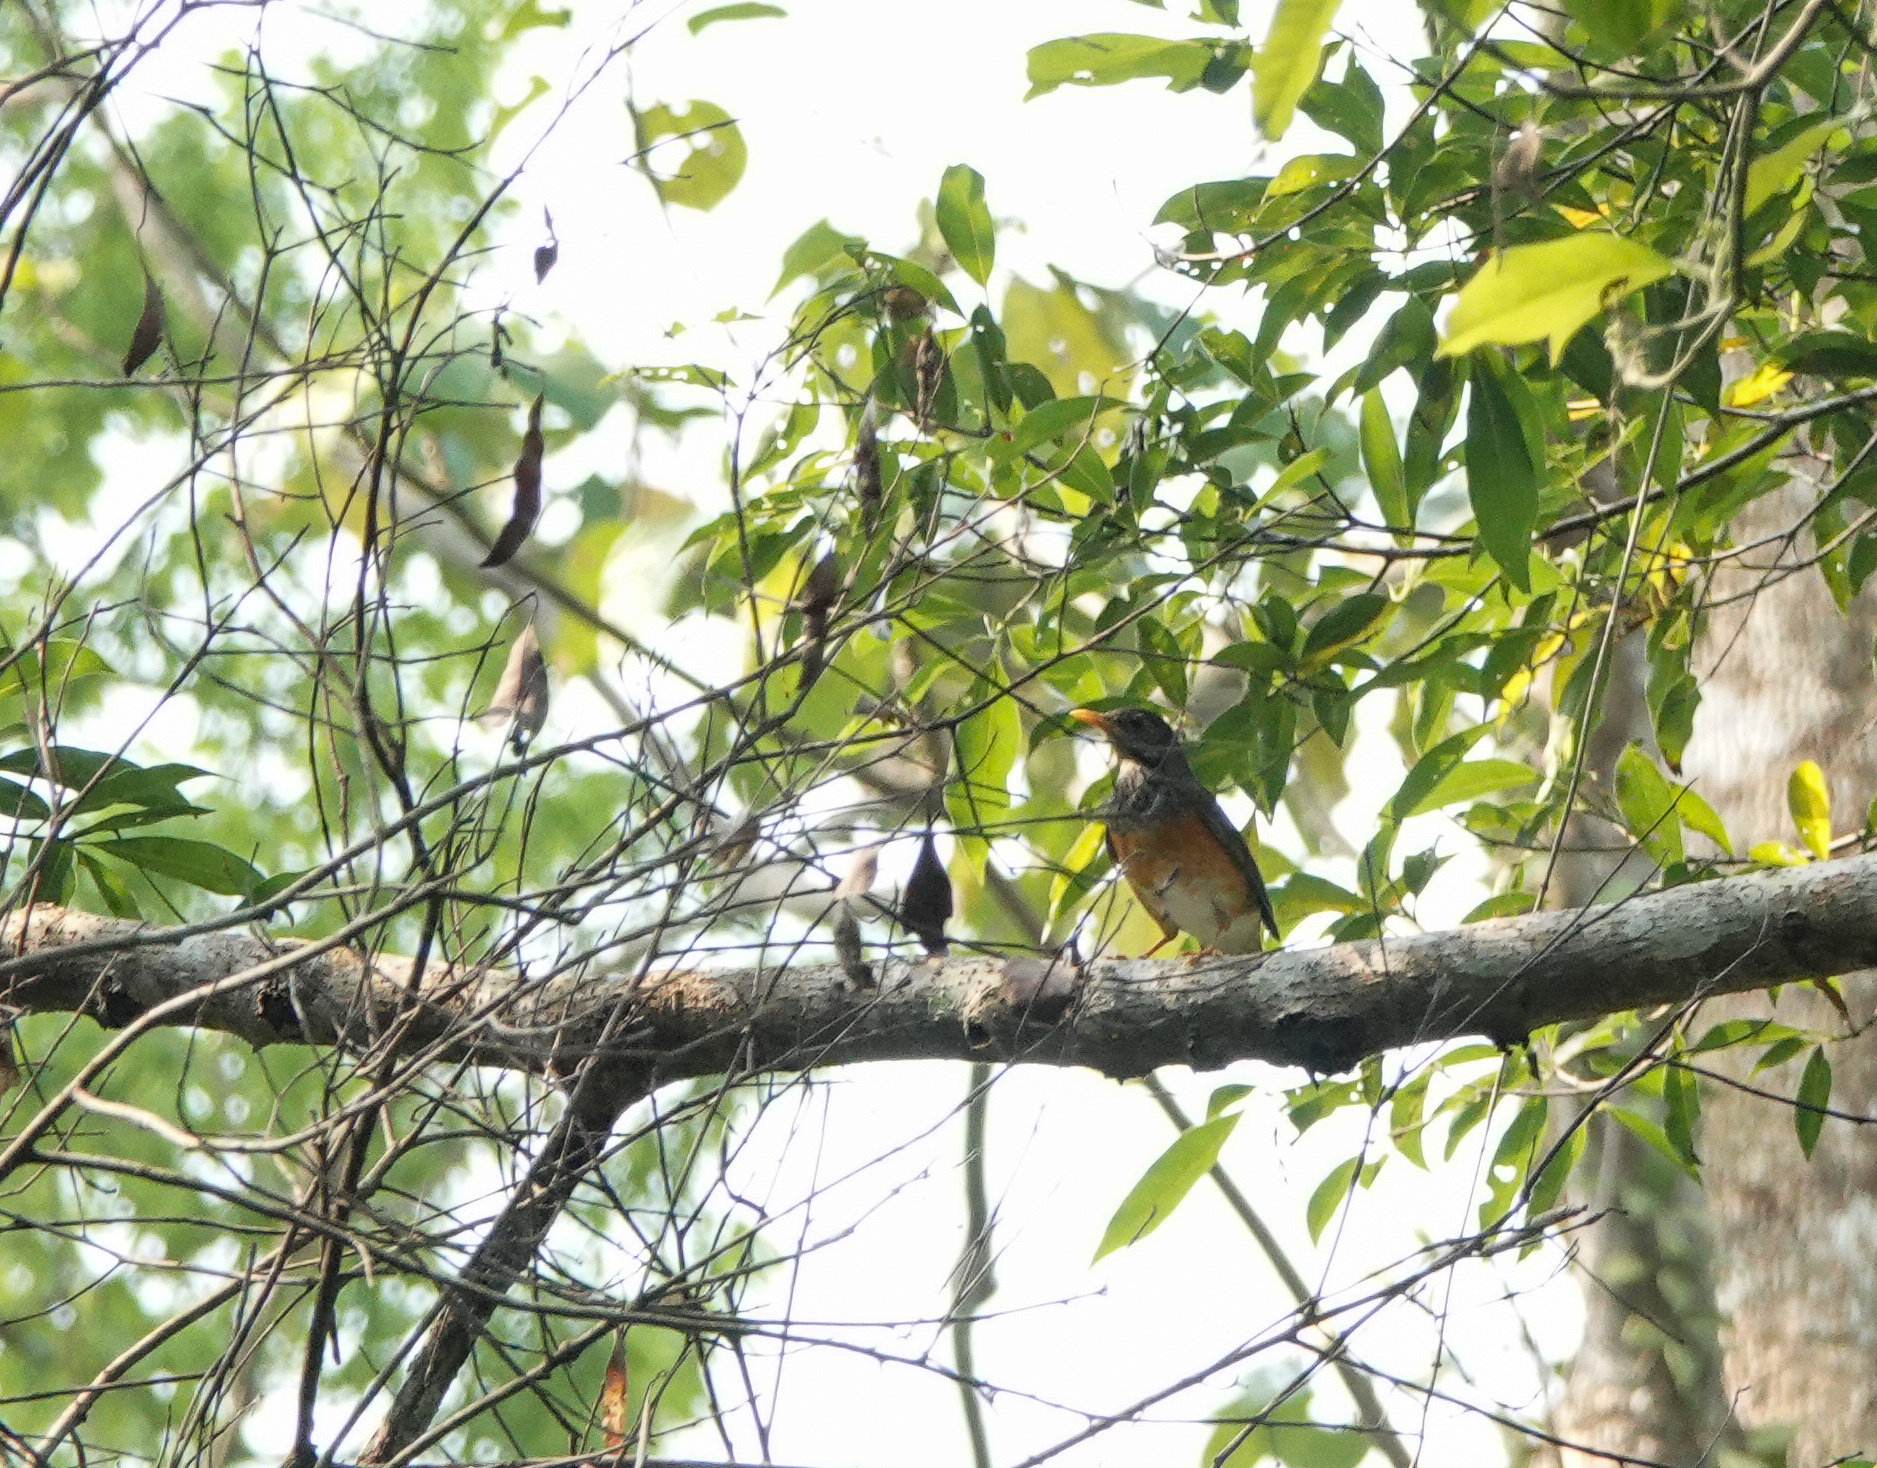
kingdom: Animalia
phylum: Chordata
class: Aves
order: Passeriformes
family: Turdidae
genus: Turdus
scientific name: Turdus dissimilis
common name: Black-breasted thrush
